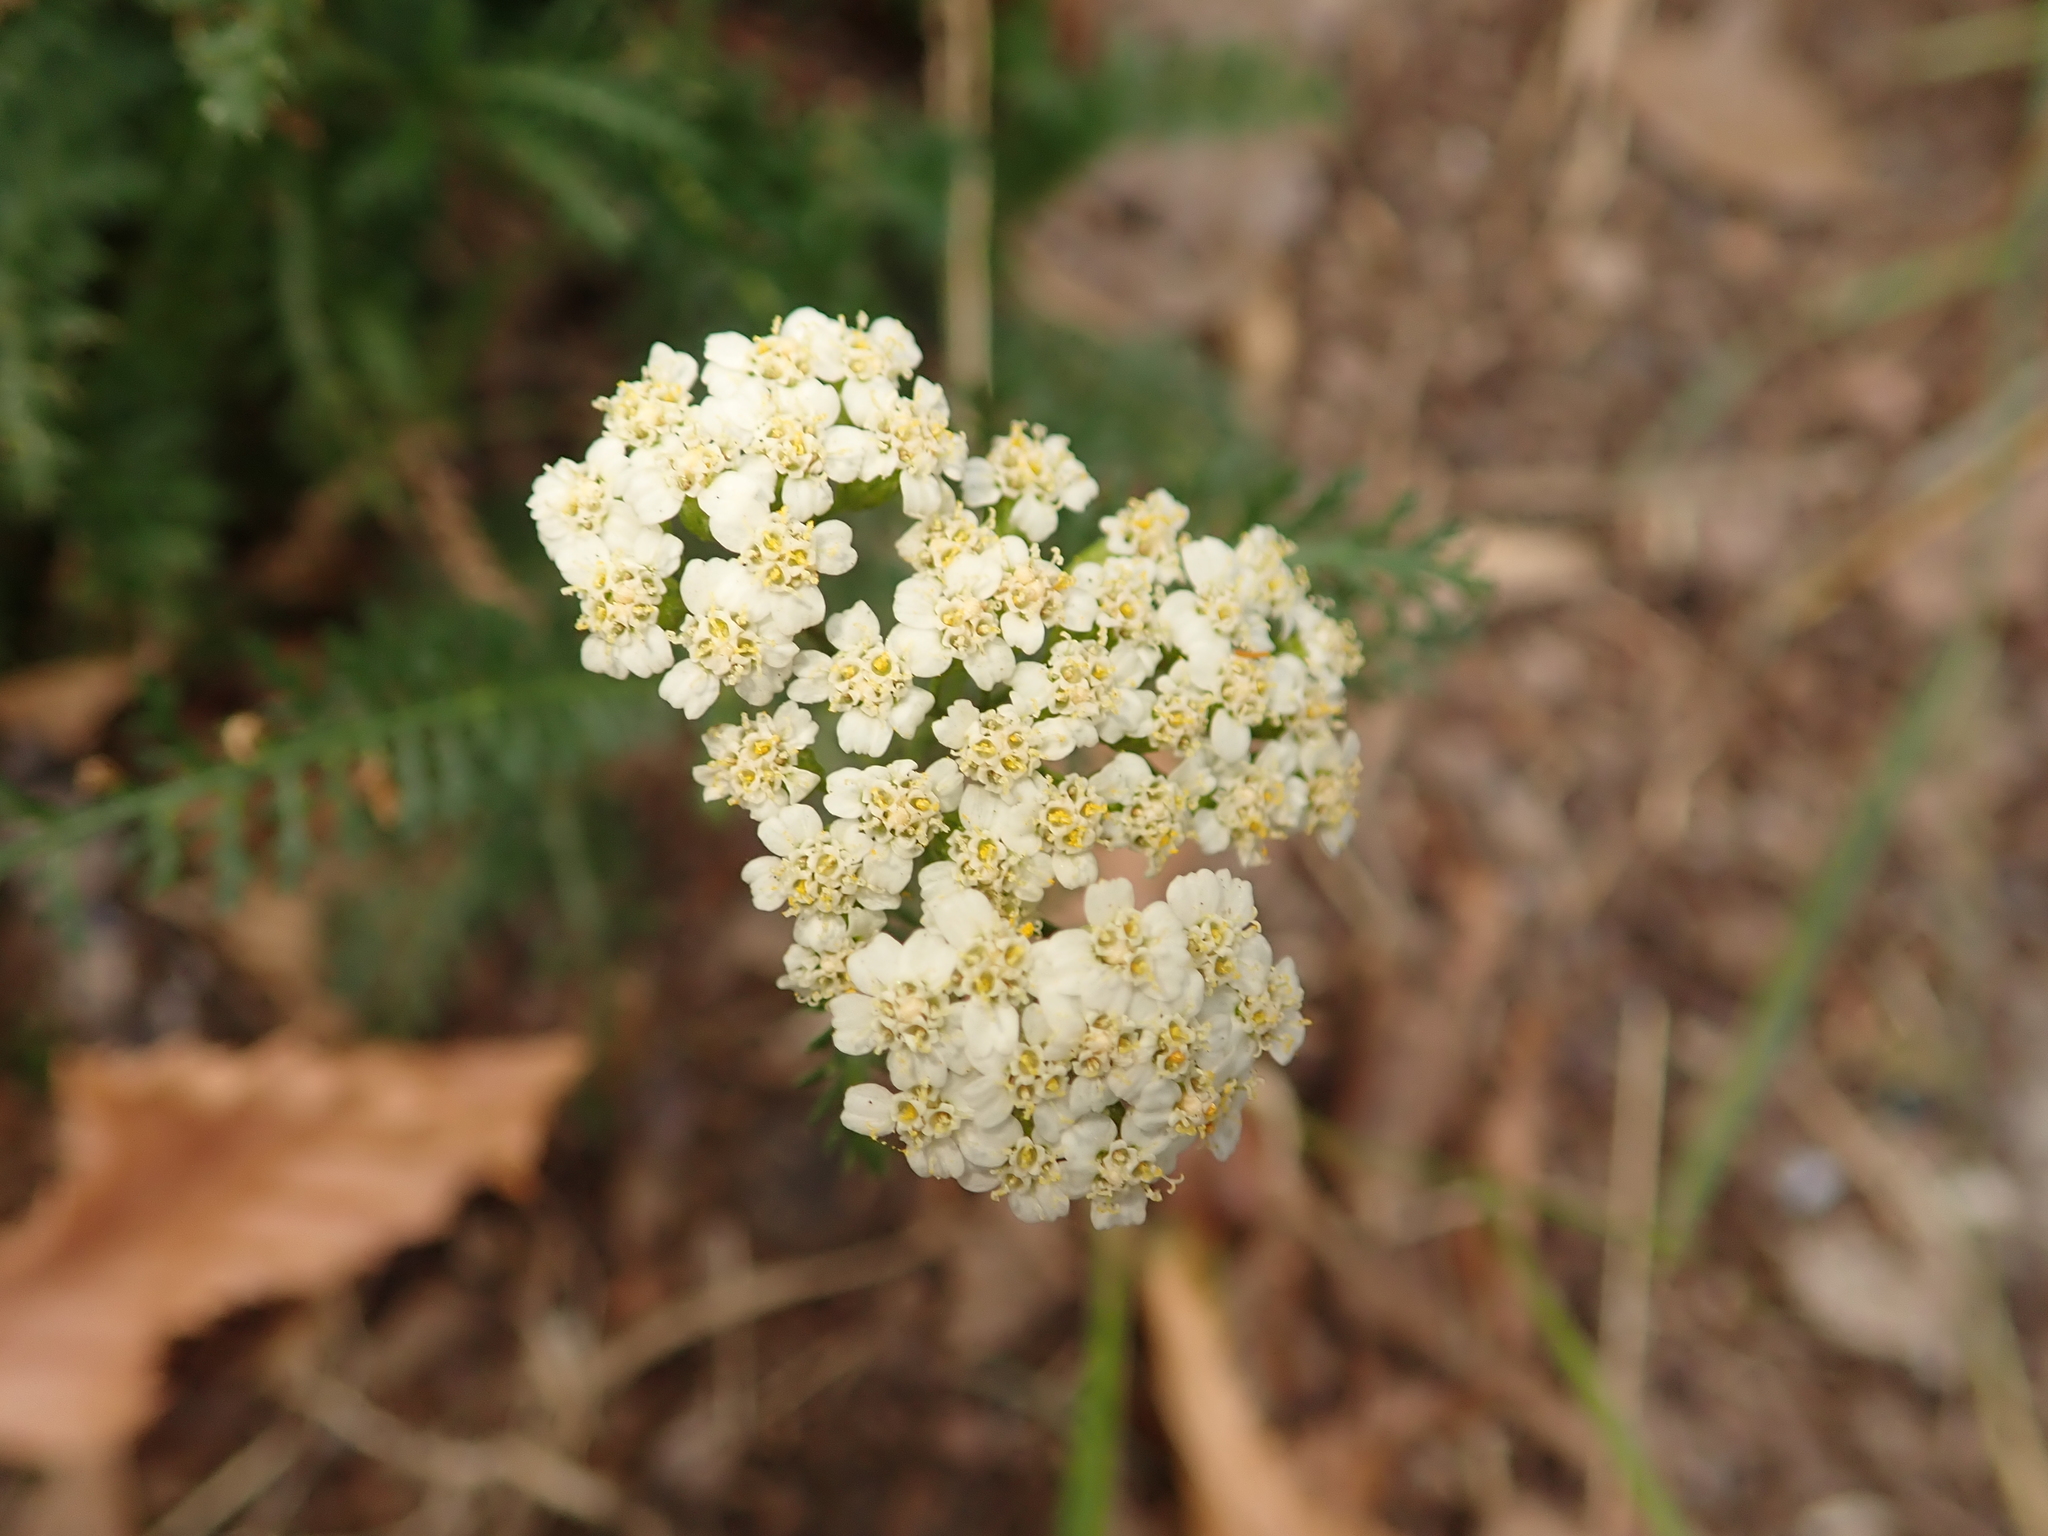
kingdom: Plantae
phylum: Tracheophyta
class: Magnoliopsida
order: Asterales
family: Asteraceae
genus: Achillea
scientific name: Achillea millefolium
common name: Yarrow
